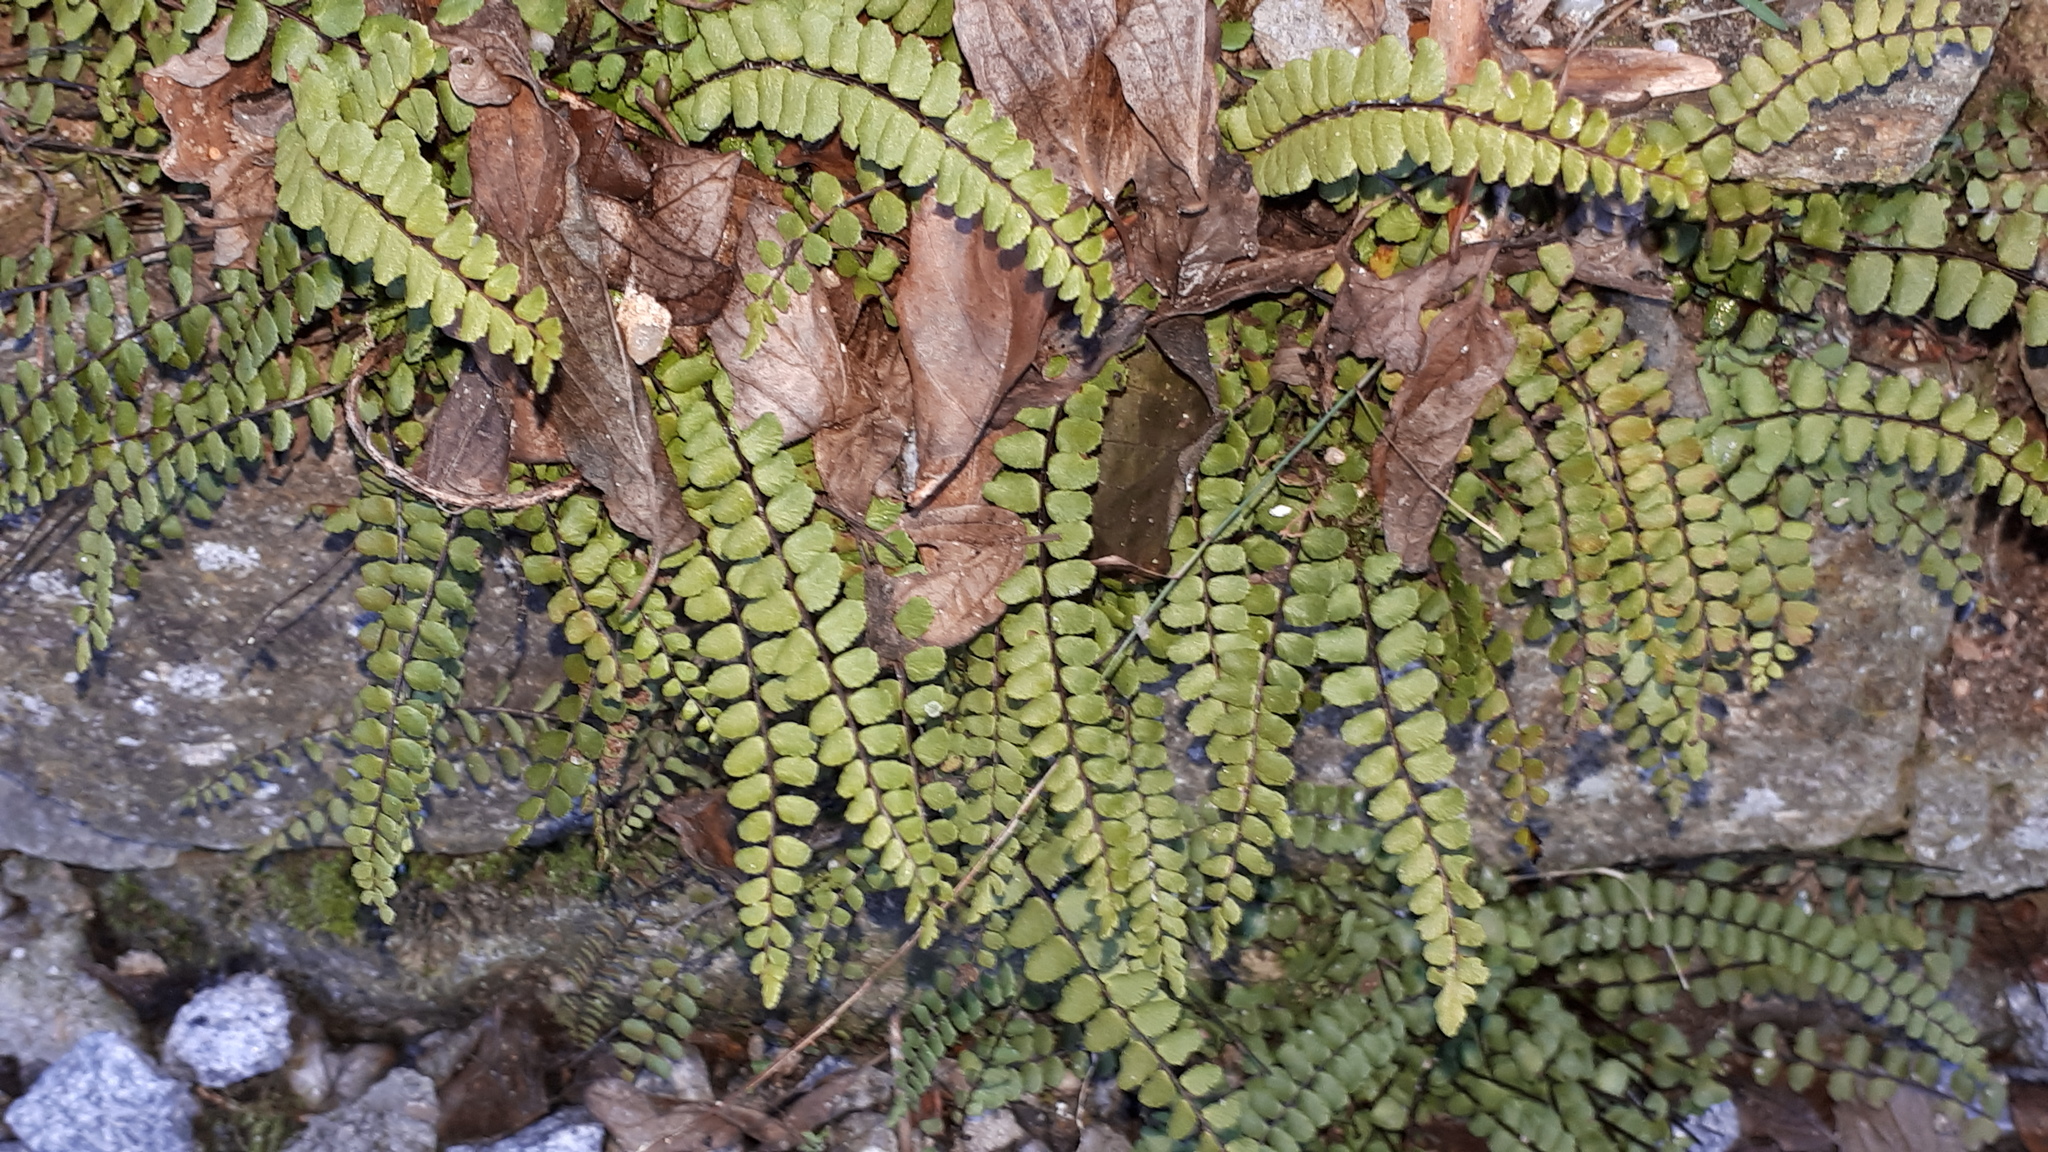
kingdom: Plantae
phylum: Tracheophyta
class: Polypodiopsida
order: Polypodiales
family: Aspleniaceae
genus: Asplenium
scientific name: Asplenium trichomanes
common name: Maidenhair spleenwort
